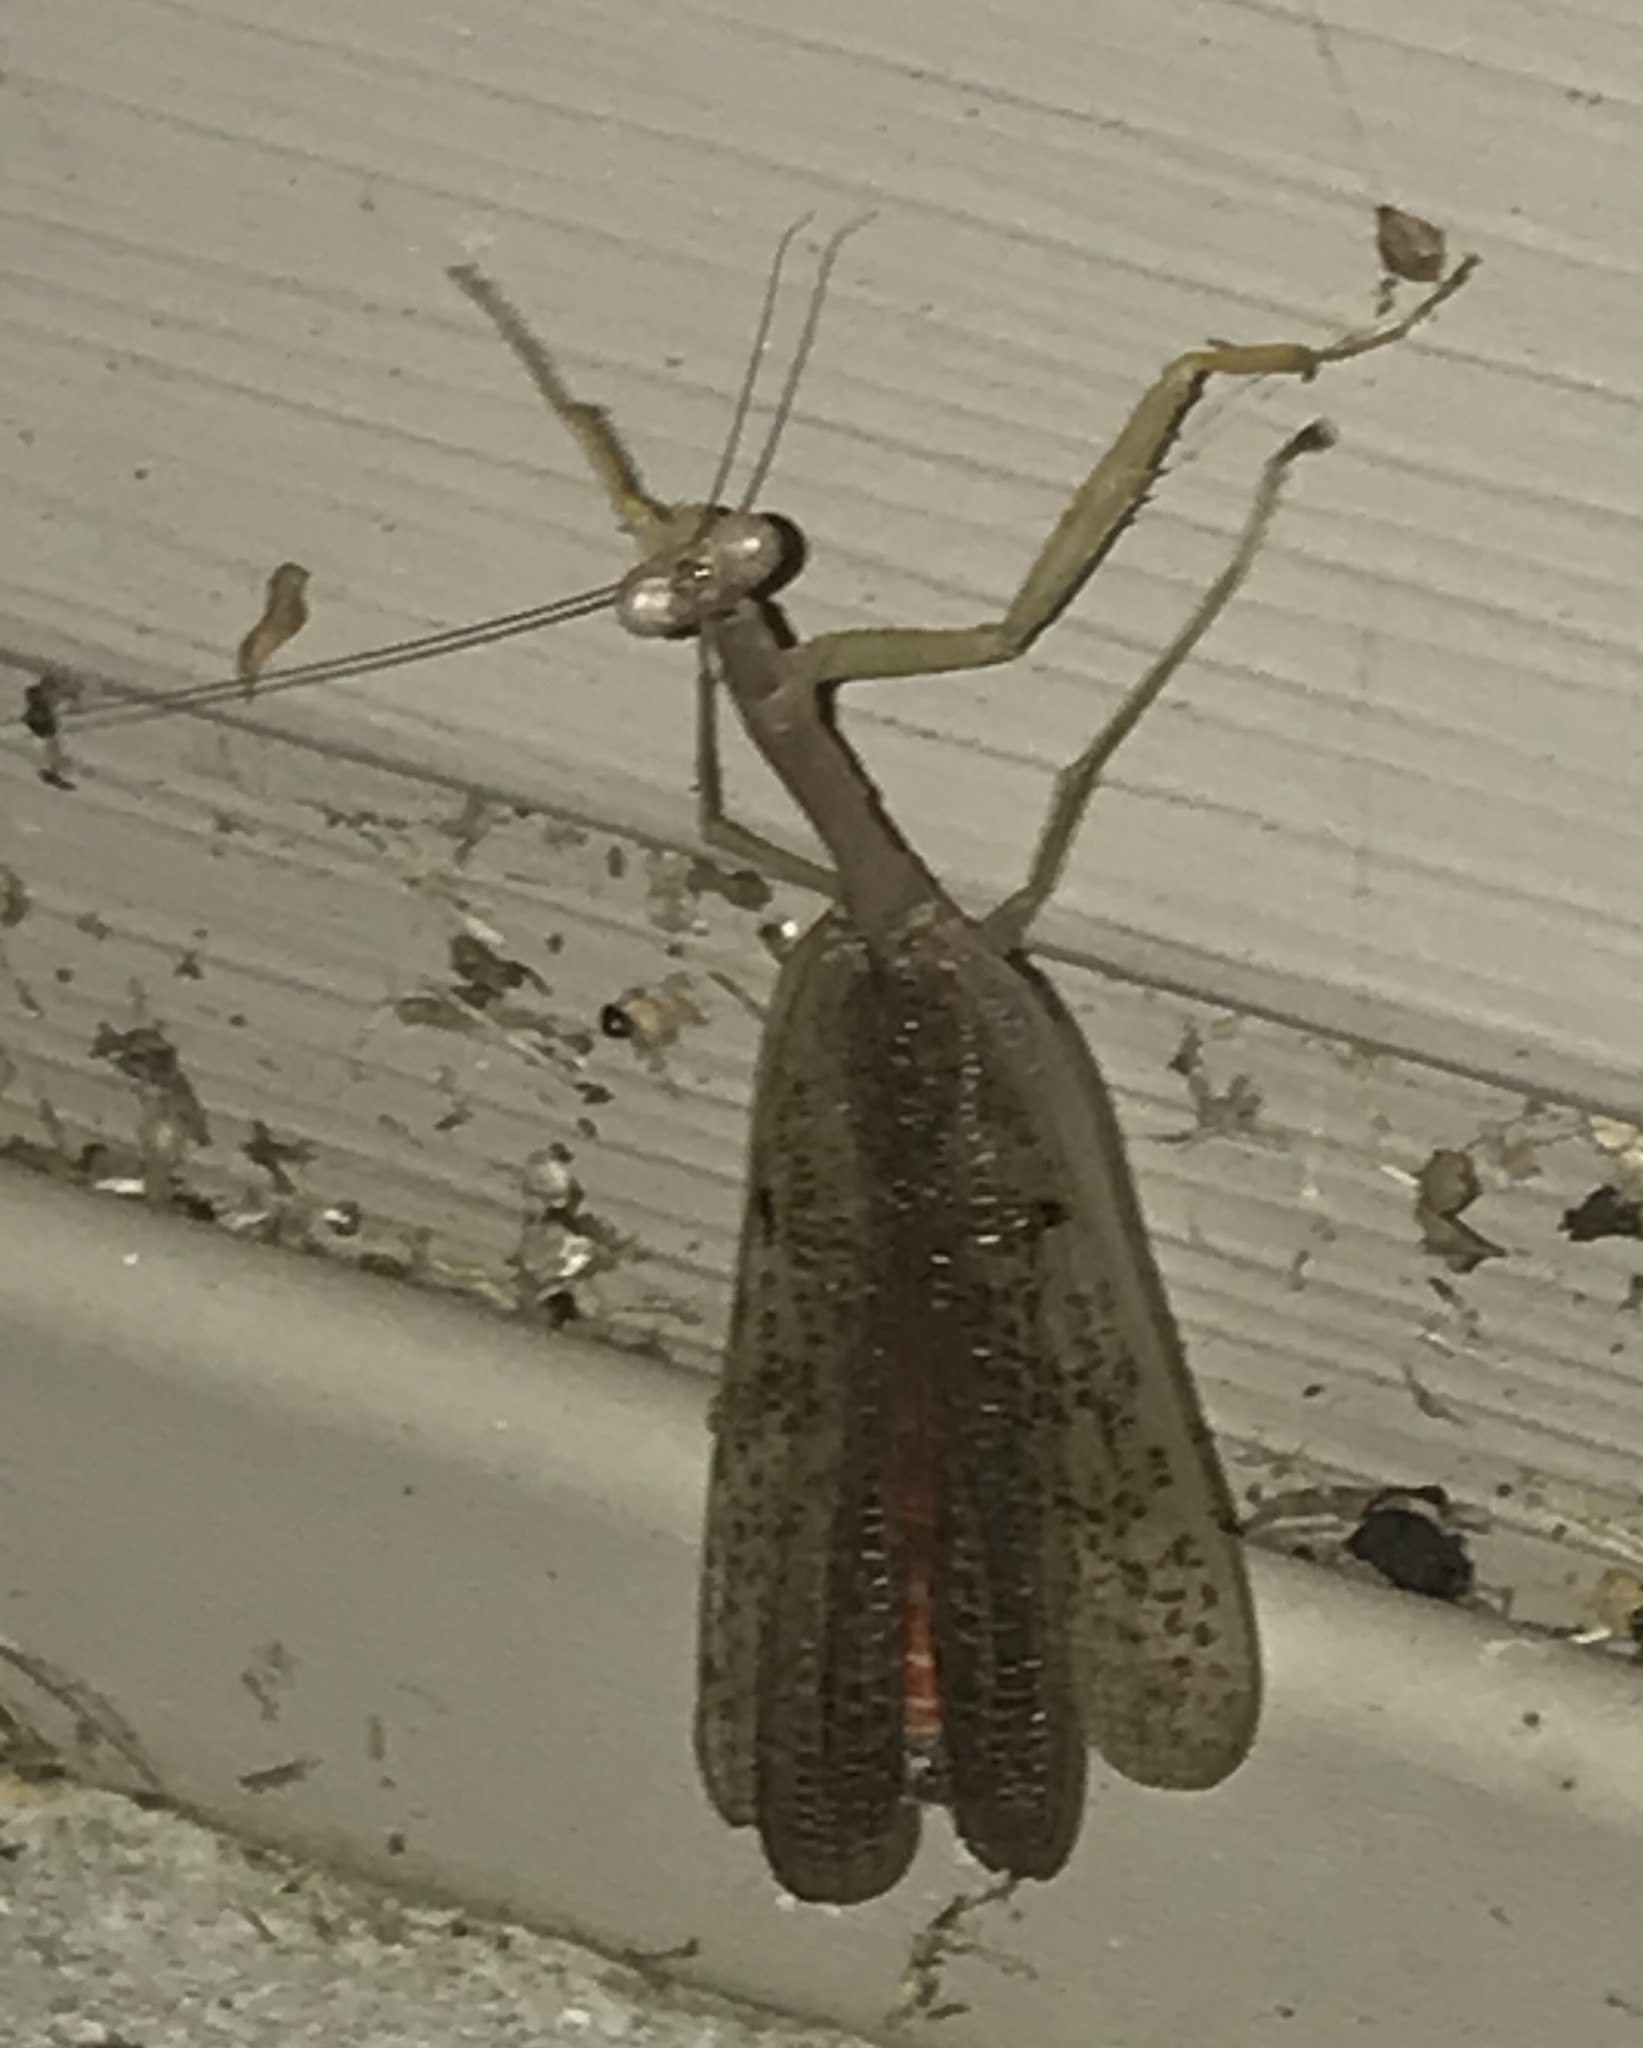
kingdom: Animalia
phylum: Arthropoda
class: Insecta
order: Mantodea
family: Mantidae
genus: Stagmomantis
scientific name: Stagmomantis carolina
